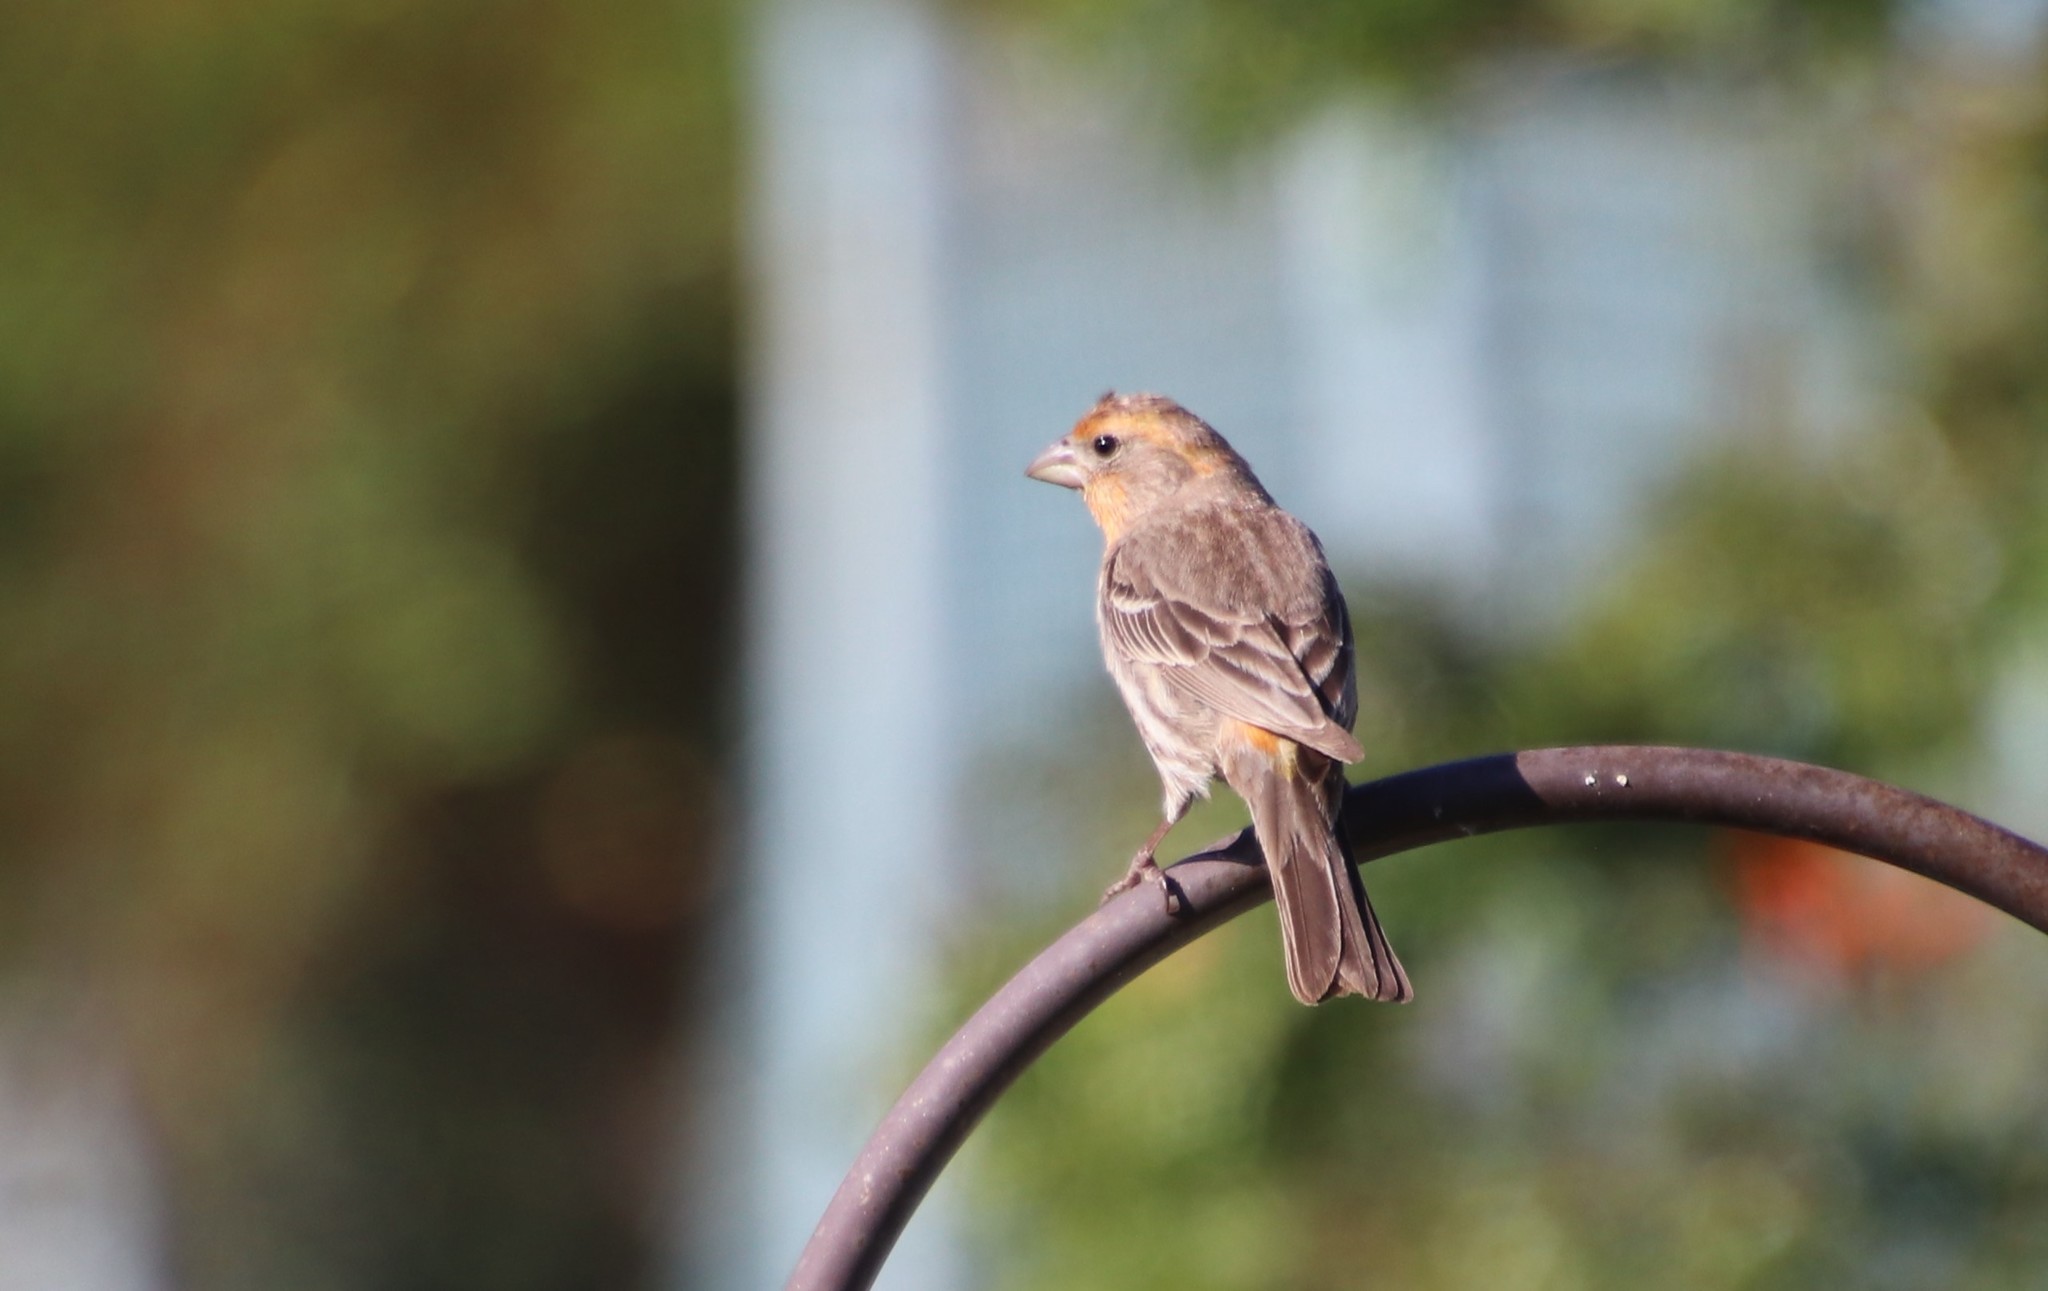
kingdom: Animalia
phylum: Chordata
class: Aves
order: Passeriformes
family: Fringillidae
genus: Haemorhous
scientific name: Haemorhous mexicanus
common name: House finch
